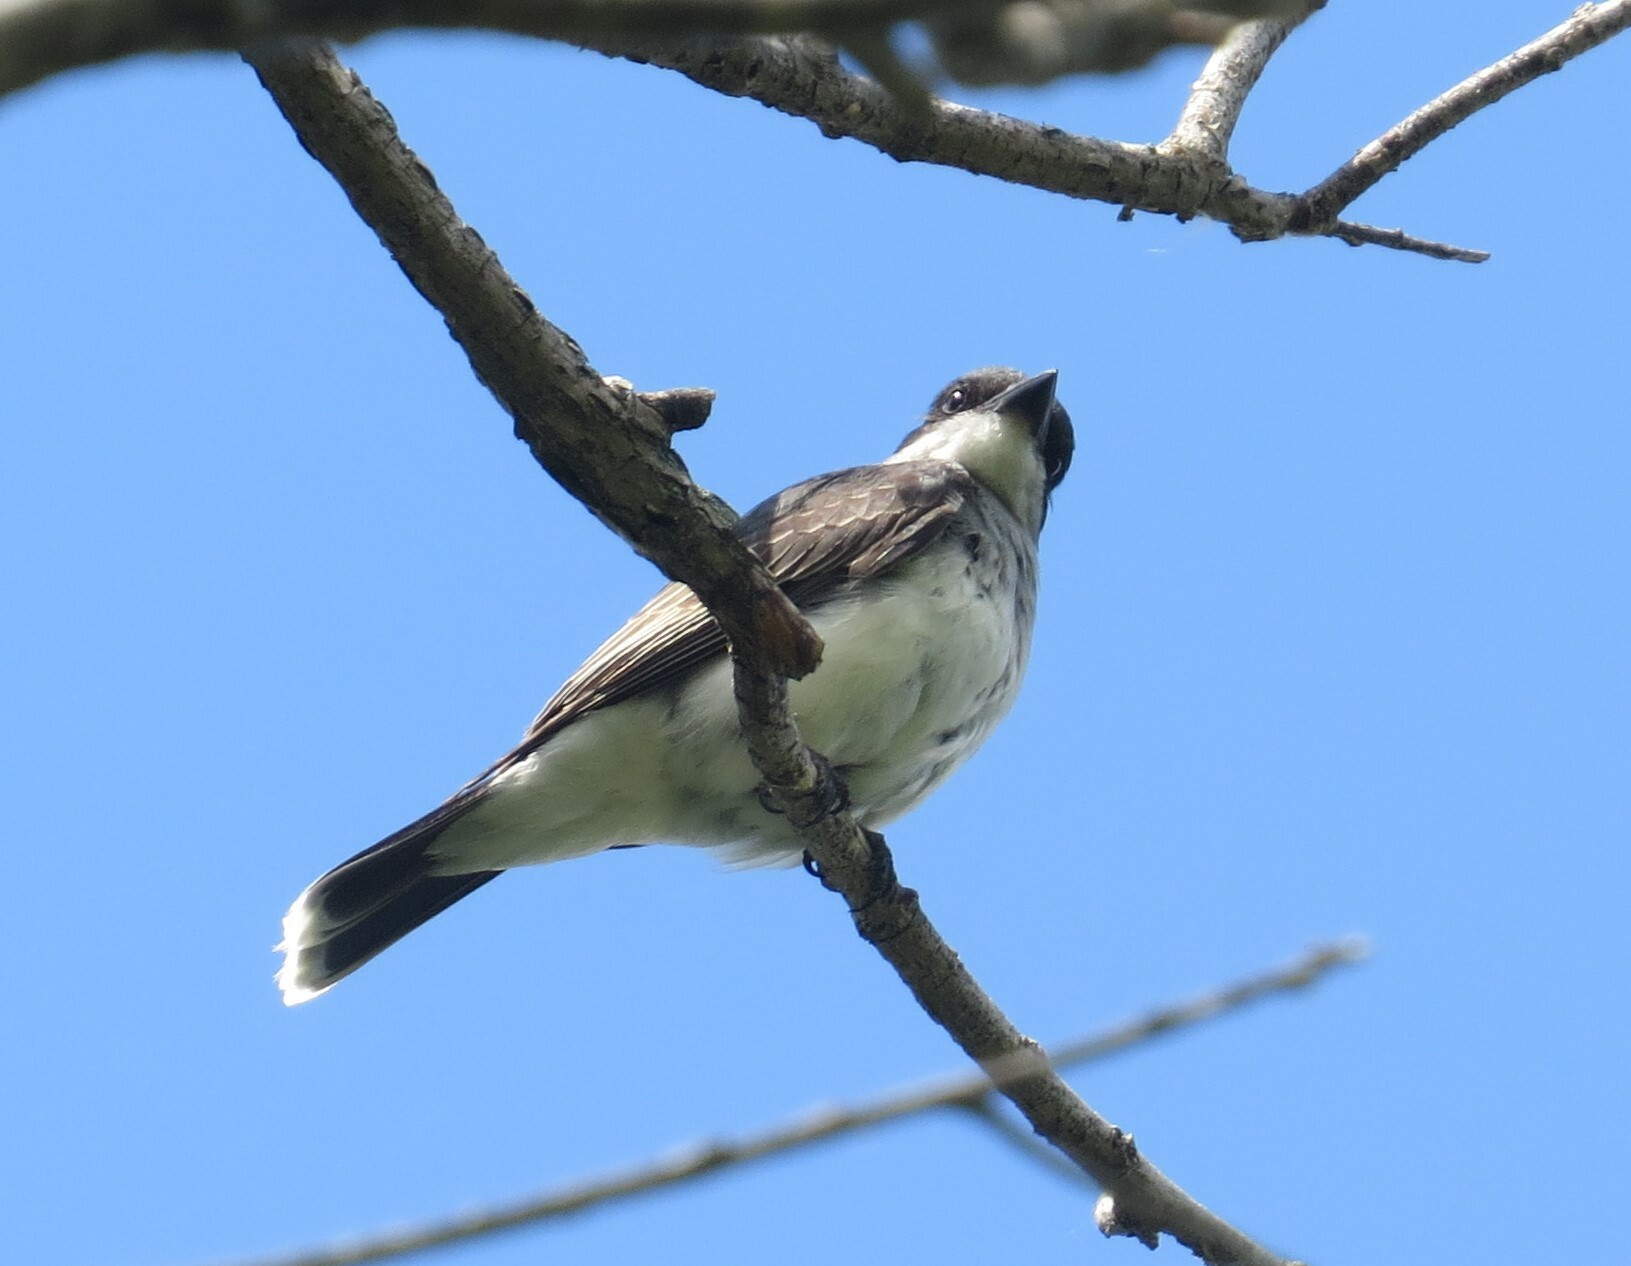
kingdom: Animalia
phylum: Chordata
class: Aves
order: Passeriformes
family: Tyrannidae
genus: Tyrannus
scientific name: Tyrannus tyrannus
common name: Eastern kingbird
